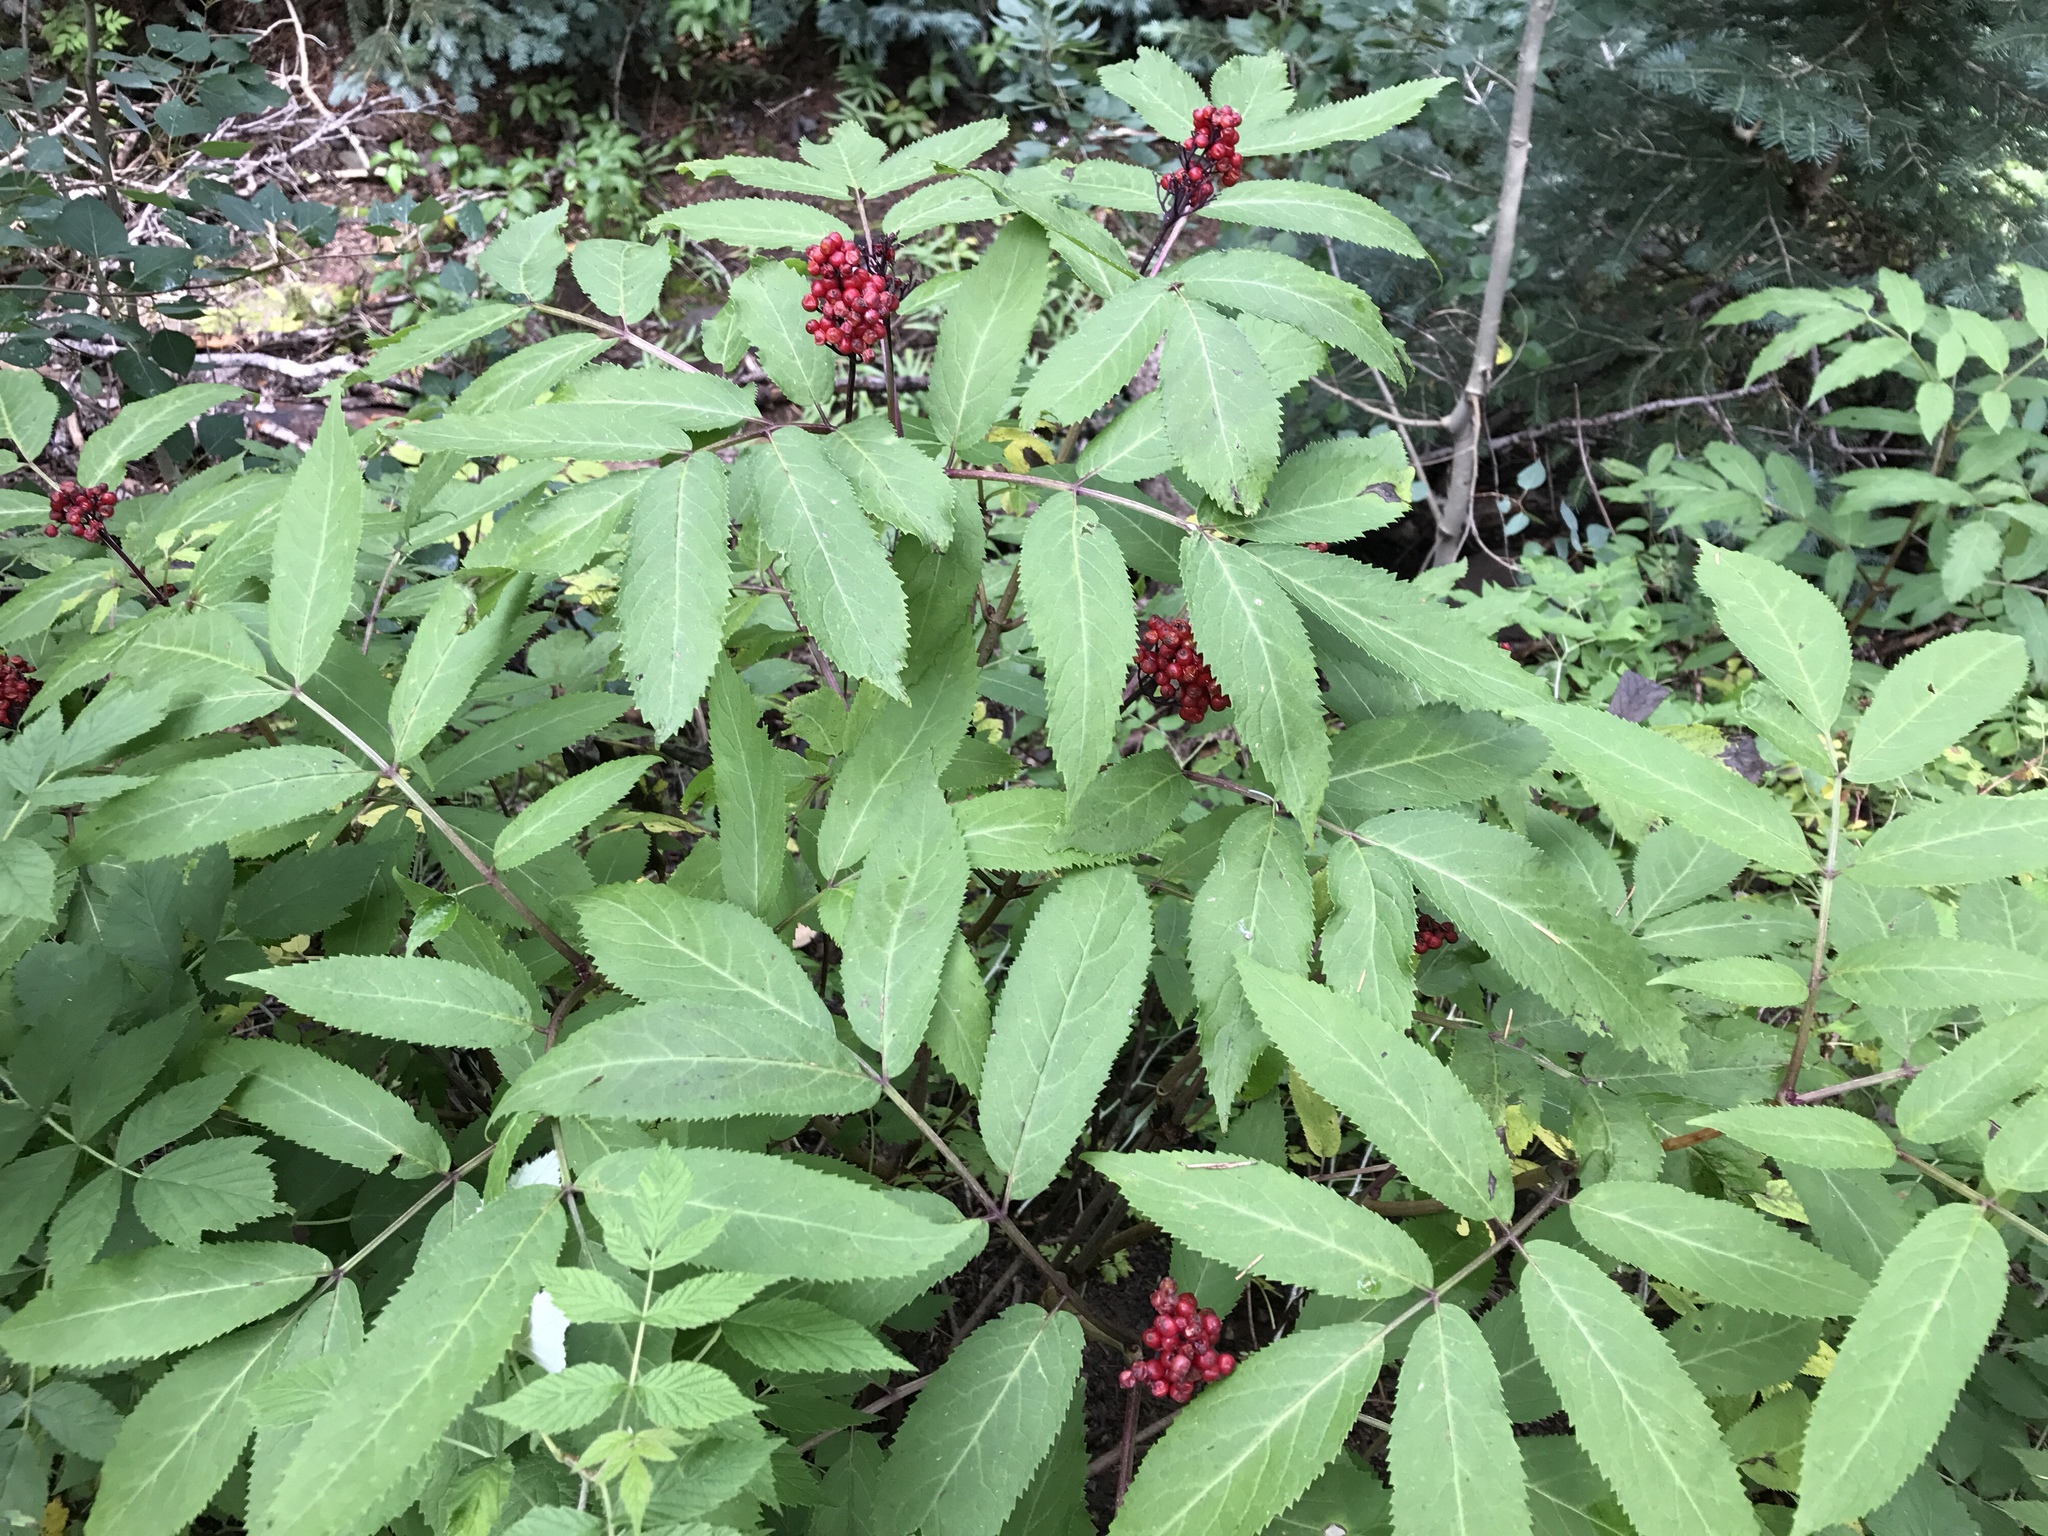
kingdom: Plantae
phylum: Tracheophyta
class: Magnoliopsida
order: Dipsacales
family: Viburnaceae
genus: Sambucus
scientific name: Sambucus racemosa
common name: Red-berried elder
